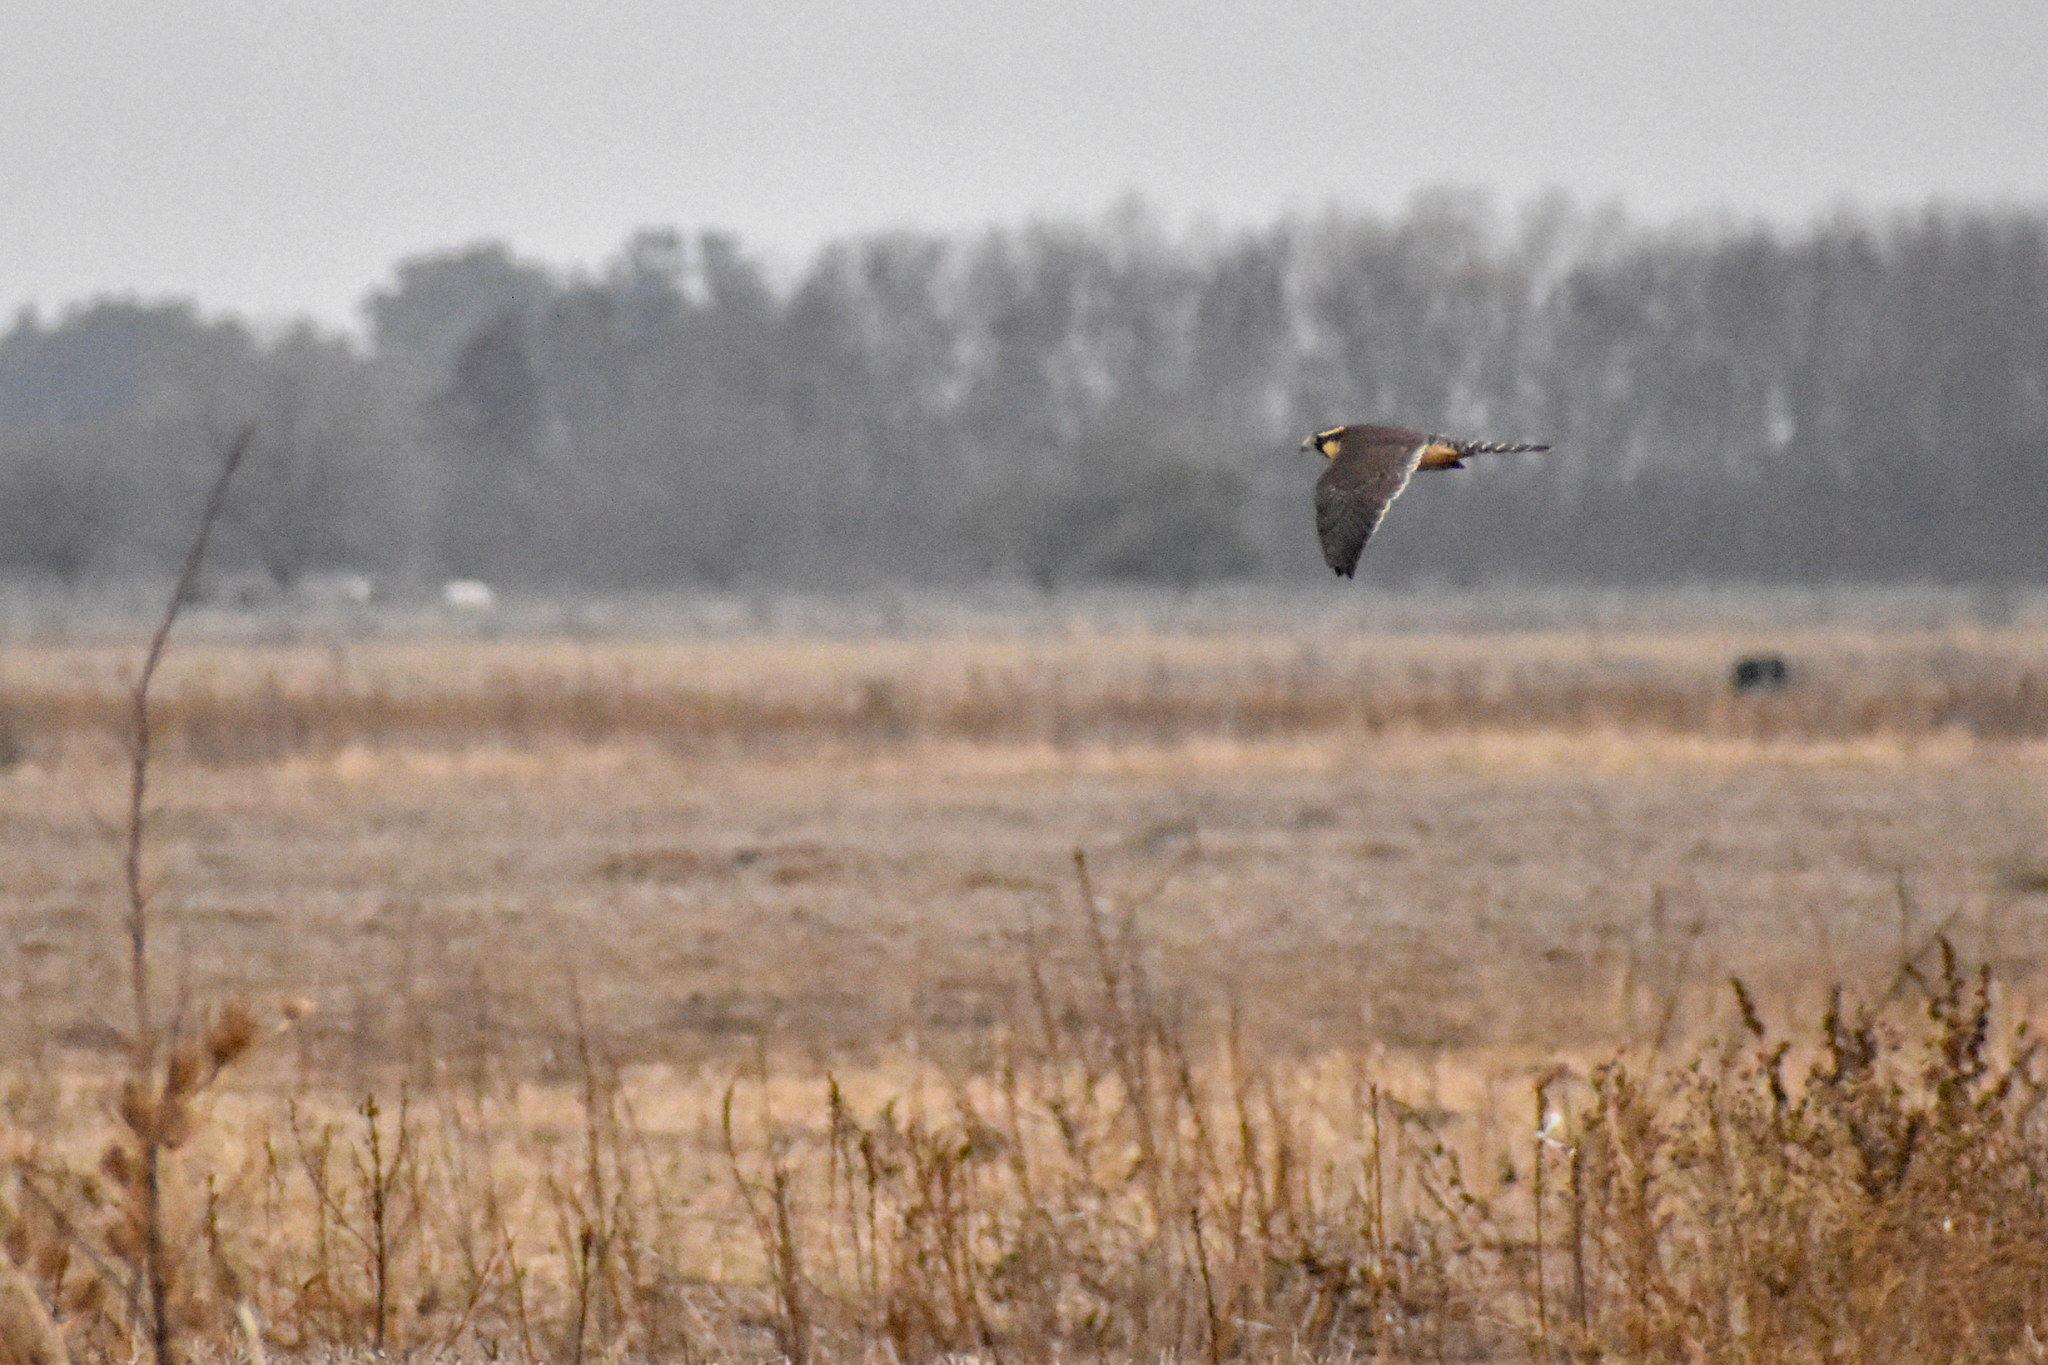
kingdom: Animalia
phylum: Chordata
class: Aves
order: Falconiformes
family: Falconidae
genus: Falco
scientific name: Falco femoralis
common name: Aplomado falcon
